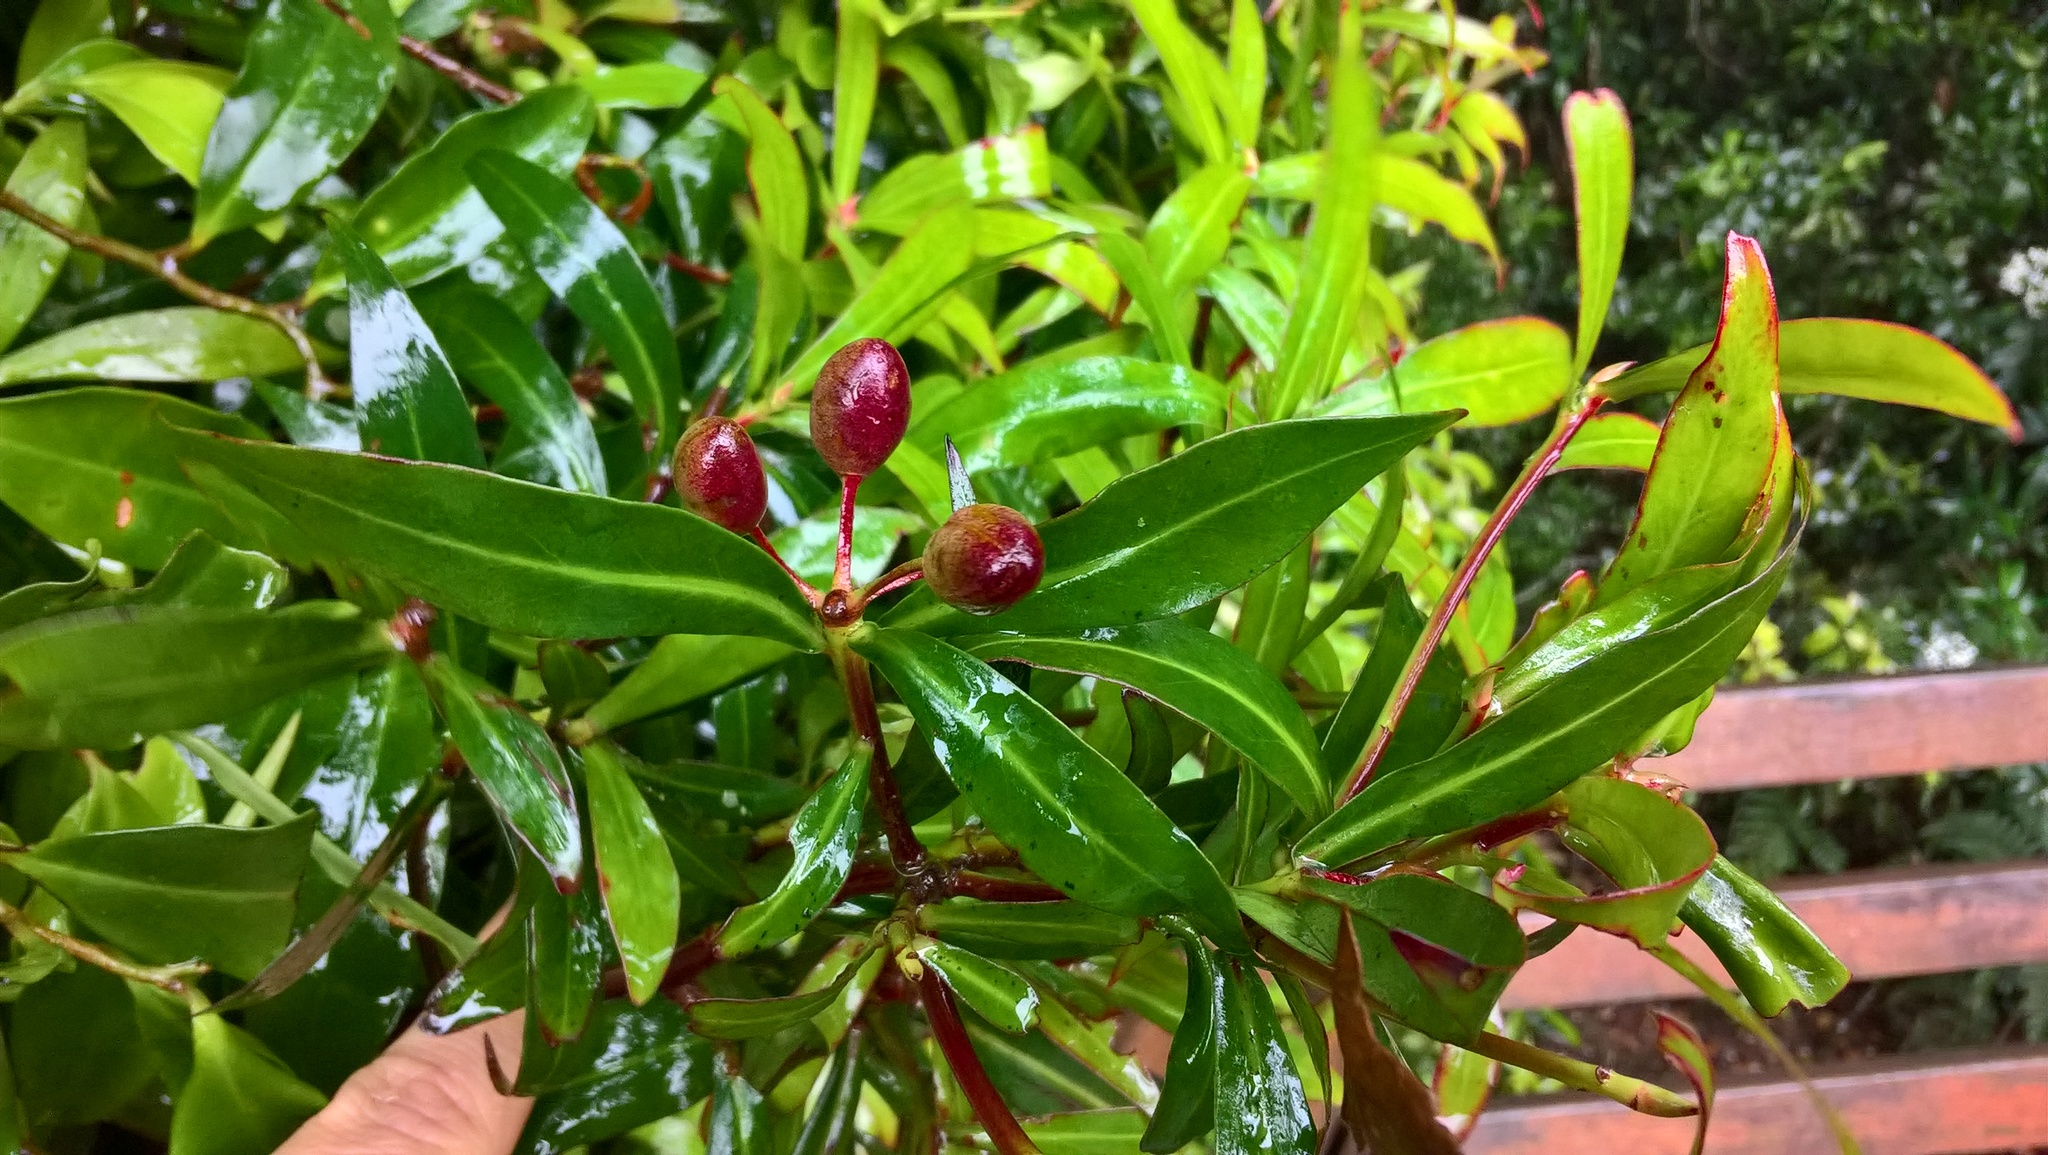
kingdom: Plantae
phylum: Tracheophyta
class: Magnoliopsida
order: Canellales
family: Winteraceae
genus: Drimys
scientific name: Drimys insipida
